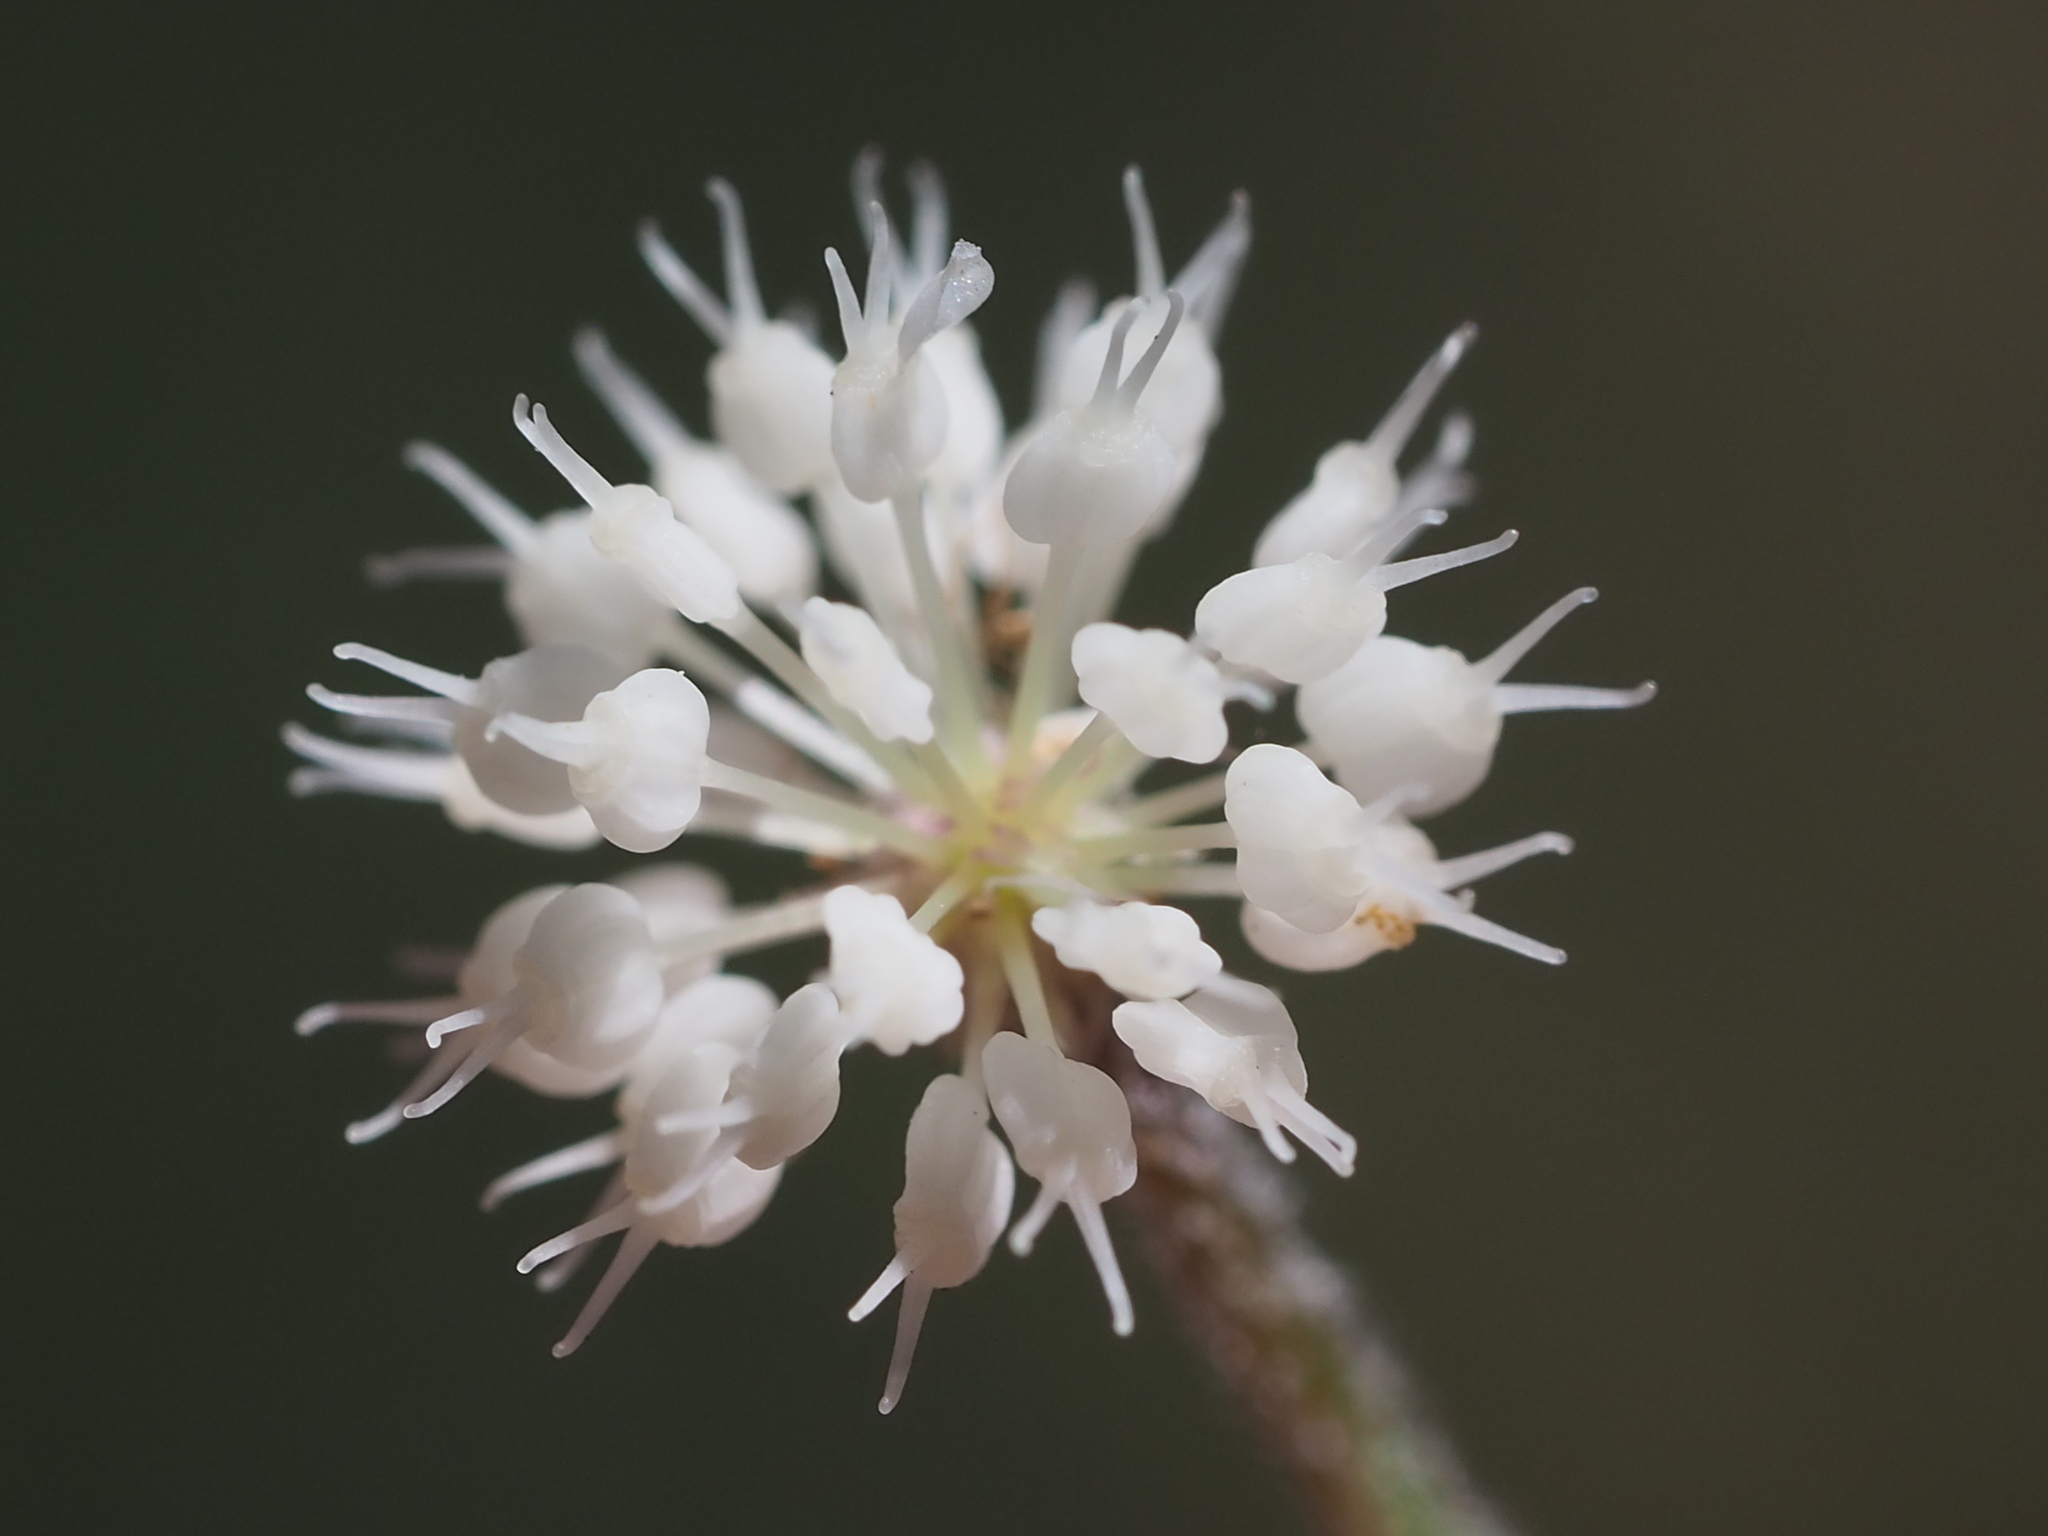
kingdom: Plantae
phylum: Tracheophyta
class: Magnoliopsida
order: Apiales
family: Araliaceae
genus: Hydrocotyle
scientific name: Hydrocotyle leucocephala
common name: Brazilian pennywort
